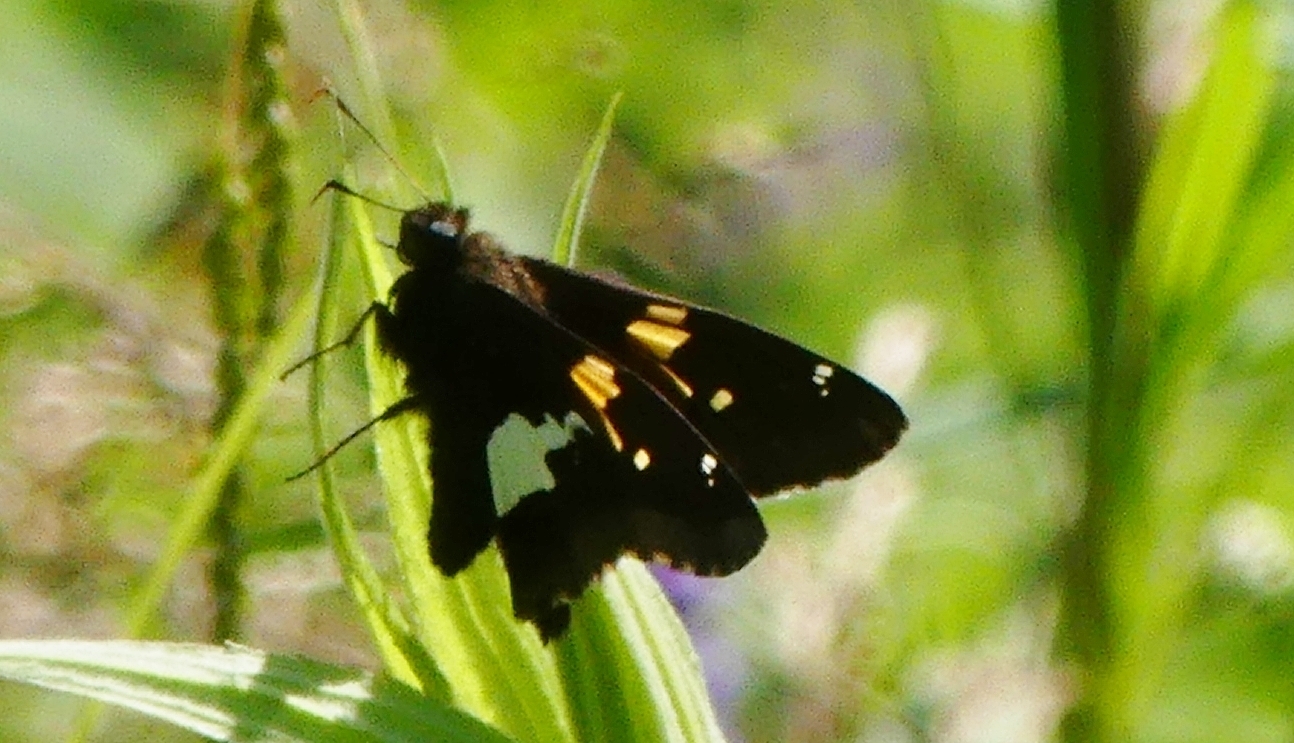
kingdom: Animalia
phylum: Arthropoda
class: Insecta
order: Lepidoptera
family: Hesperiidae
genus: Epargyreus
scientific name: Epargyreus clarus
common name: Silver-spotted skipper
